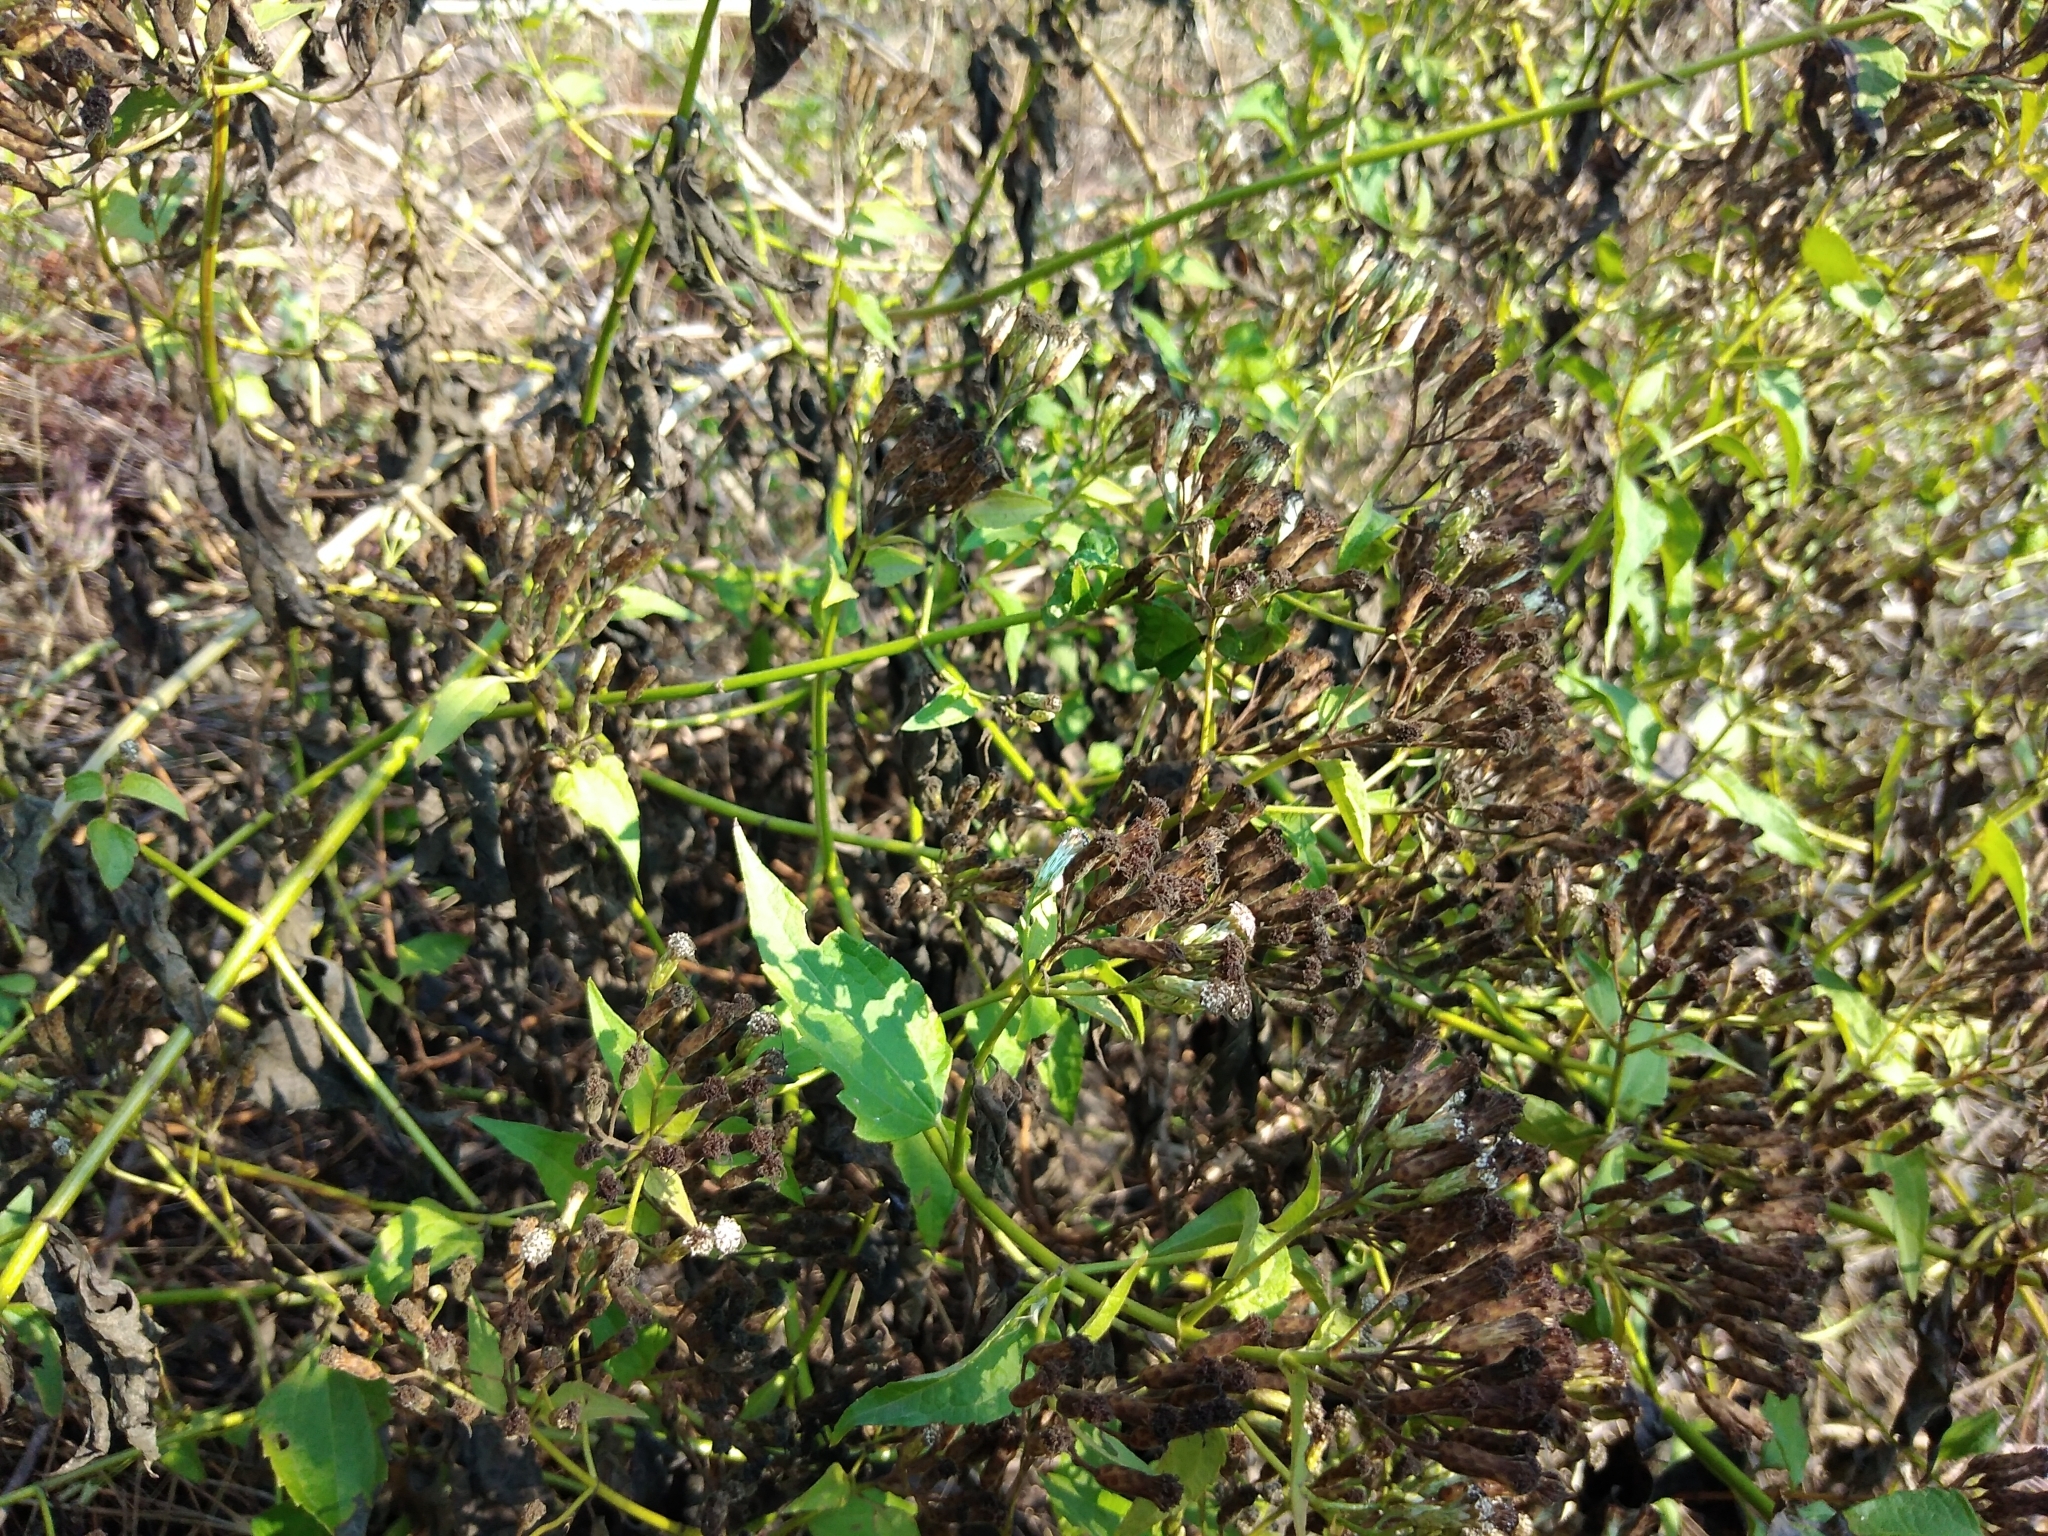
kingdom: Plantae
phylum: Tracheophyta
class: Magnoliopsida
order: Asterales
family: Asteraceae
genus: Chromolaena
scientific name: Chromolaena odorata
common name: Siamweed
